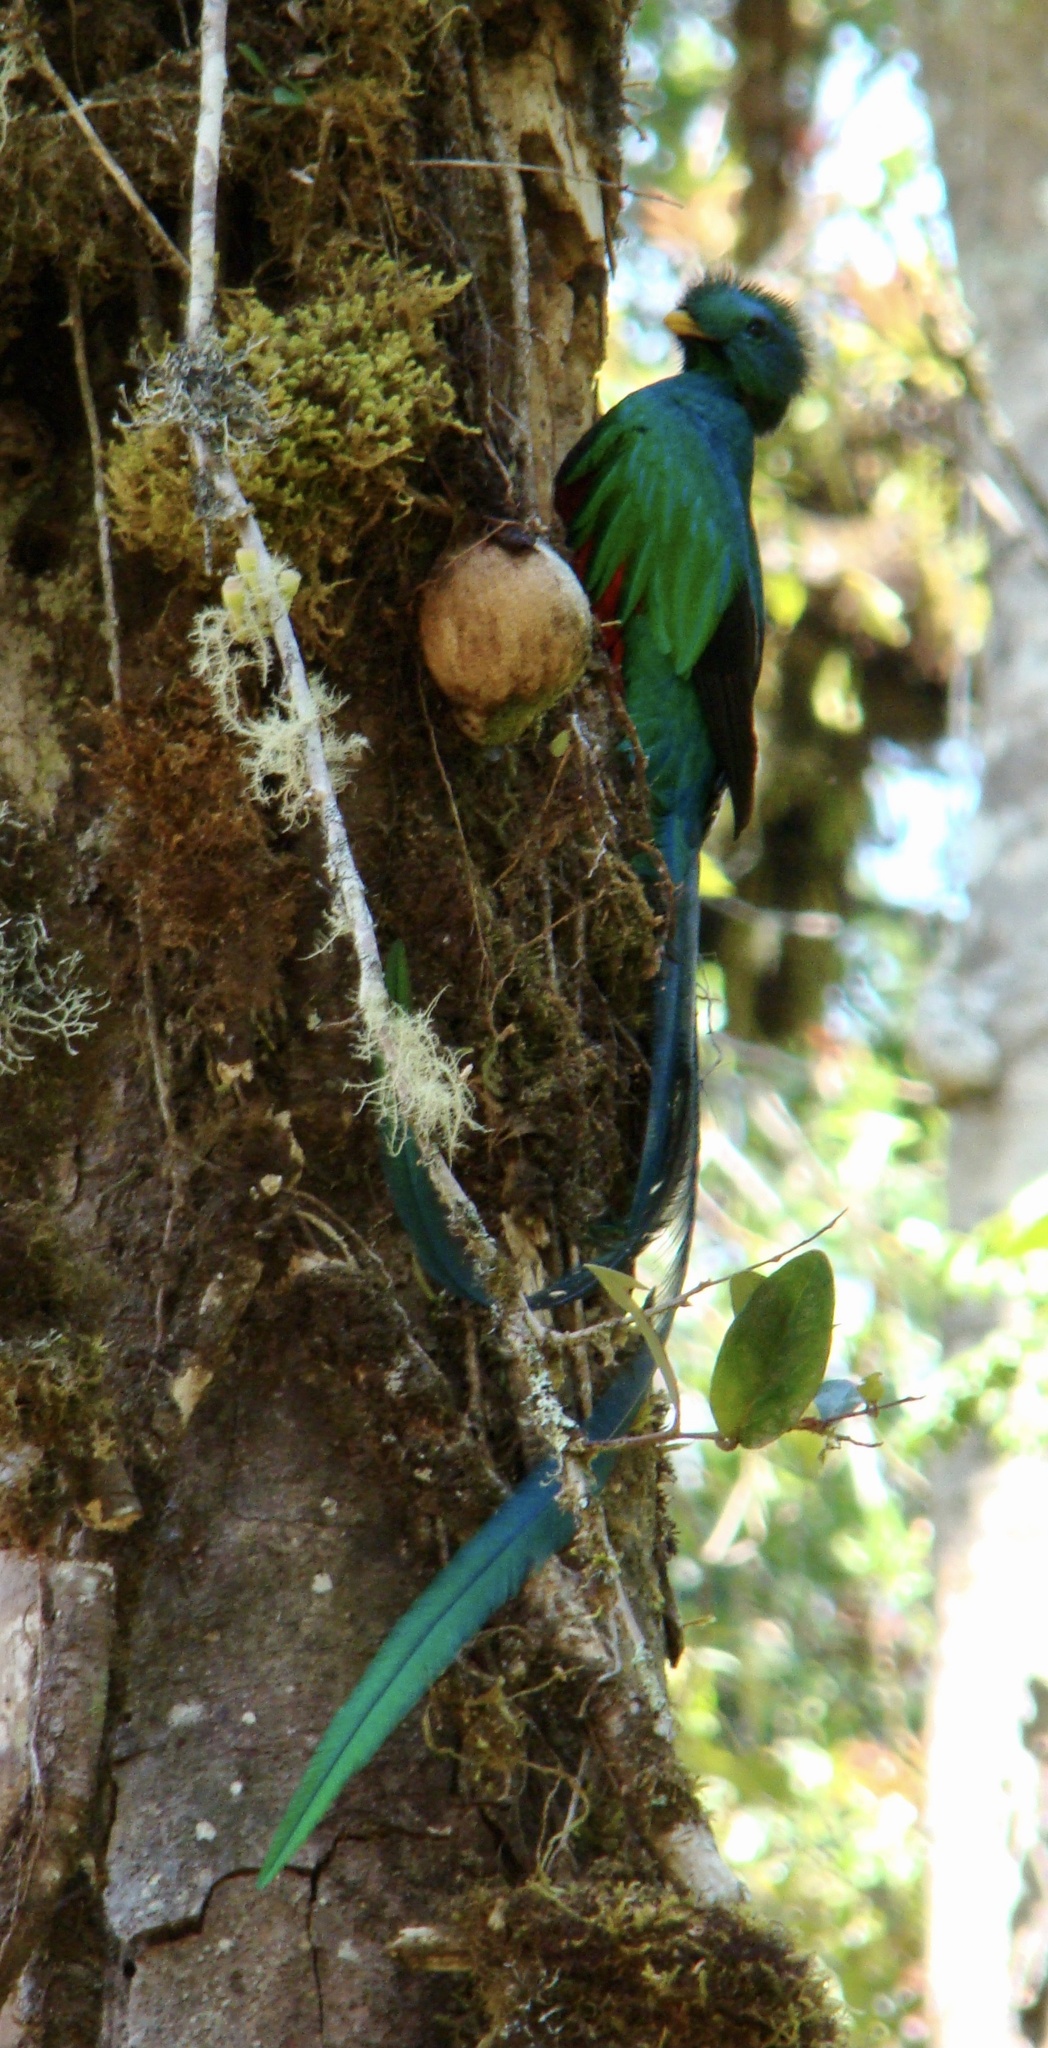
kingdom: Animalia
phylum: Chordata
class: Aves
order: Trogoniformes
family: Trogonidae
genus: Pharomachrus
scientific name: Pharomachrus mocinno
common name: Resplendent quetzal
